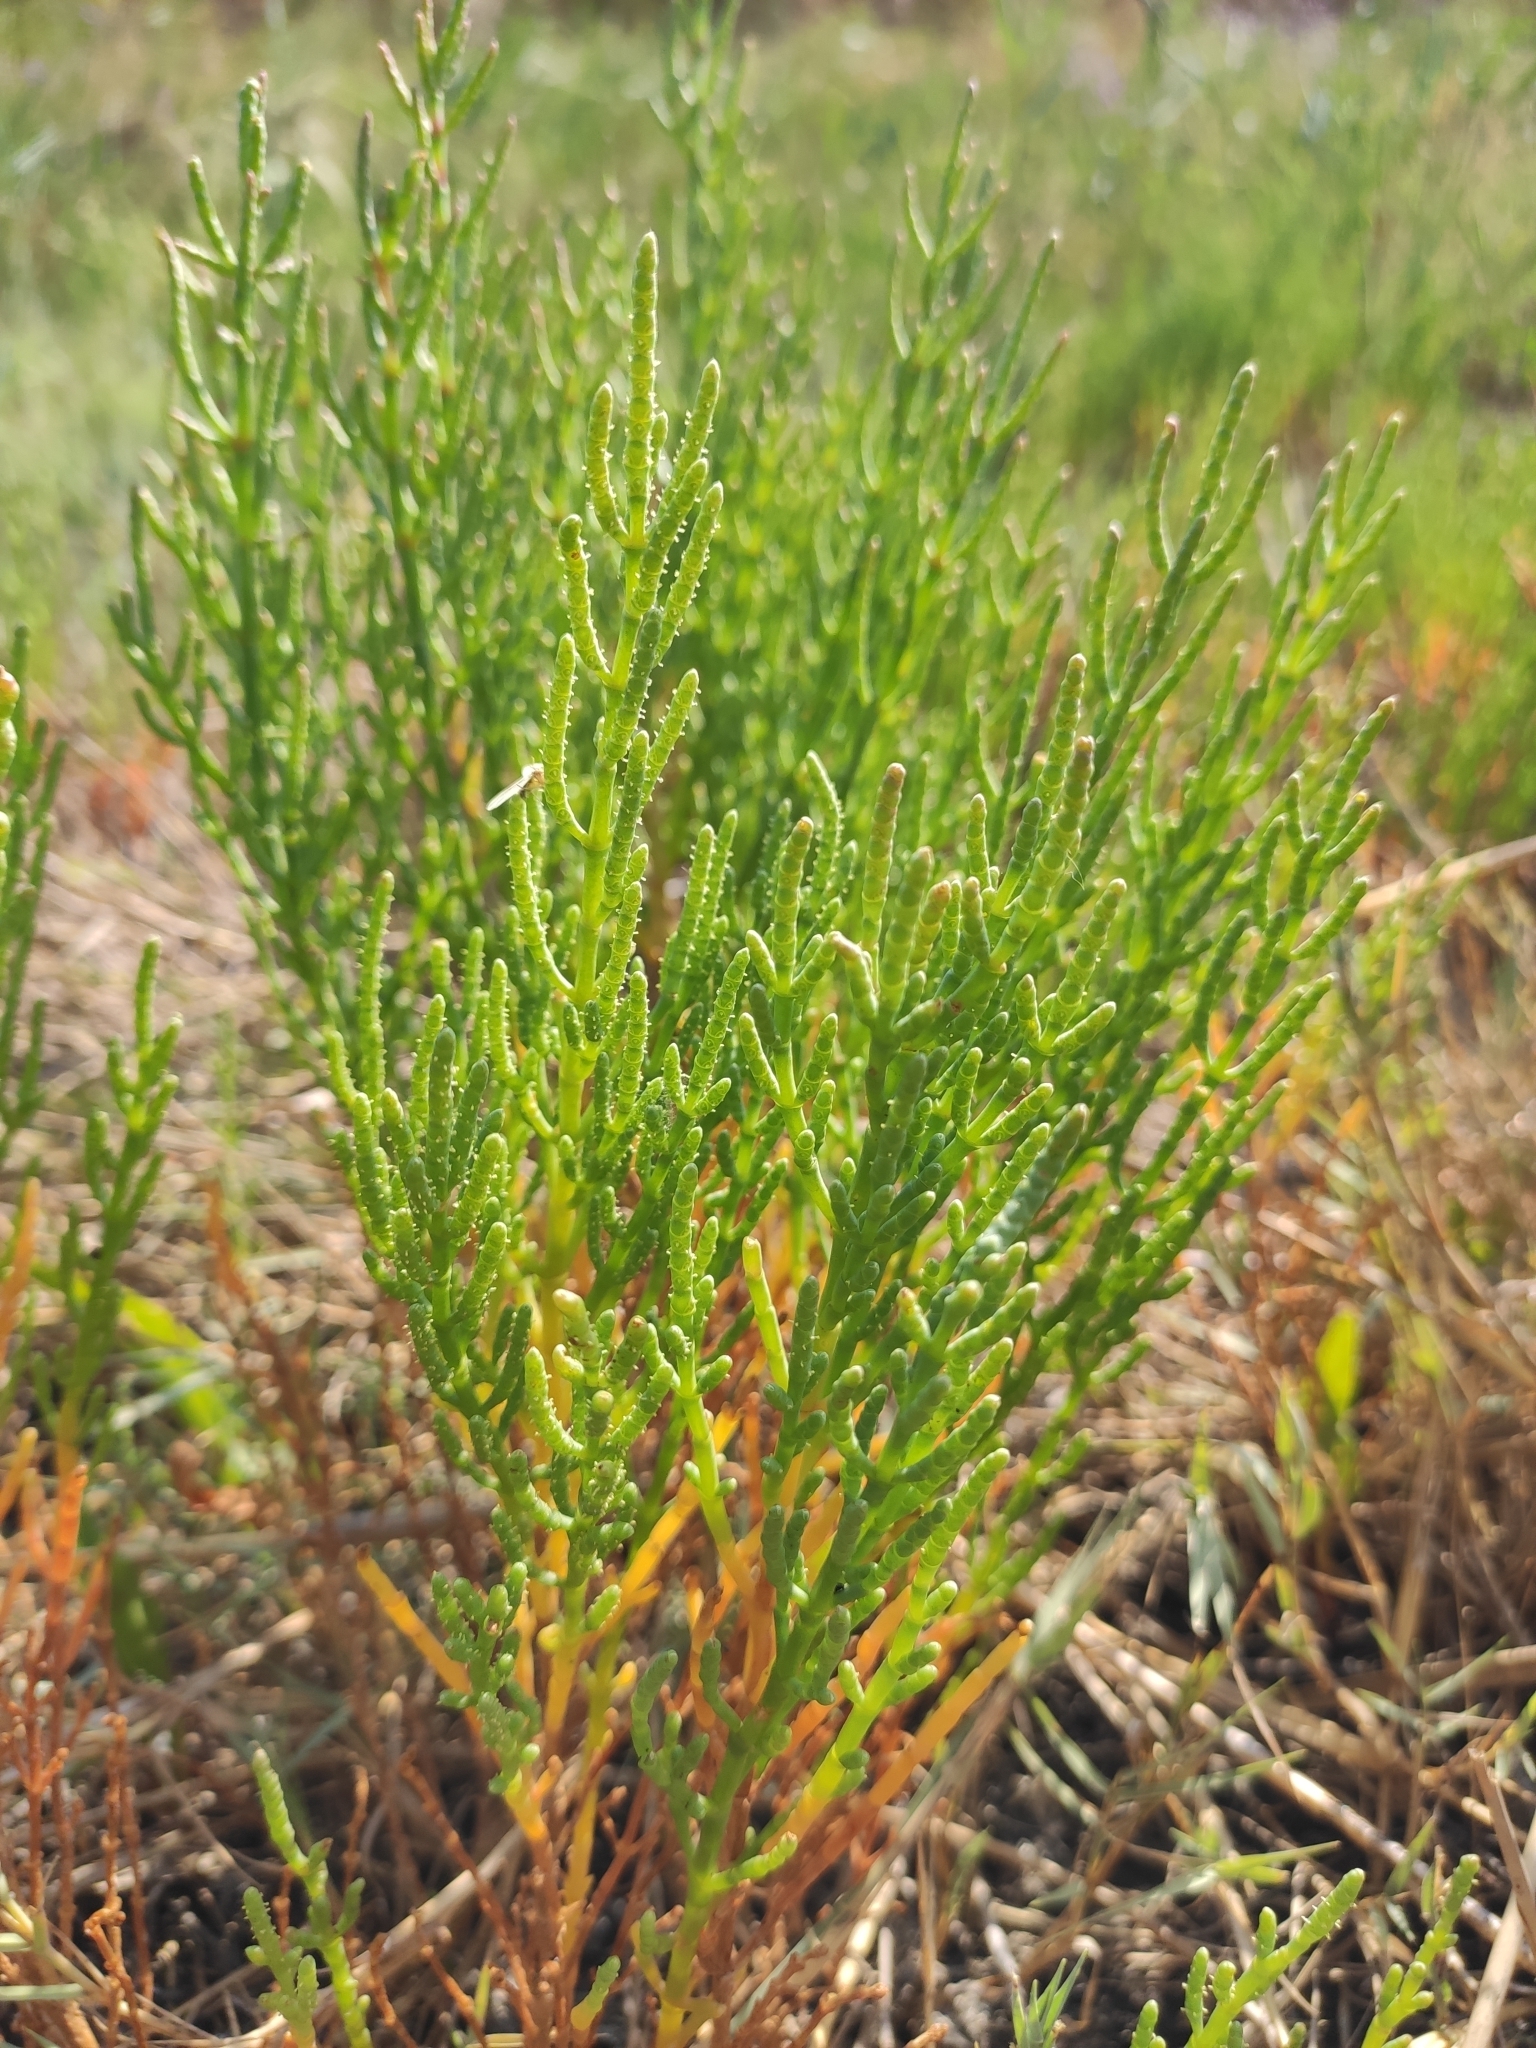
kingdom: Plantae
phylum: Tracheophyta
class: Magnoliopsida
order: Caryophyllales
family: Amaranthaceae
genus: Salicornia
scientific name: Salicornia perennans
